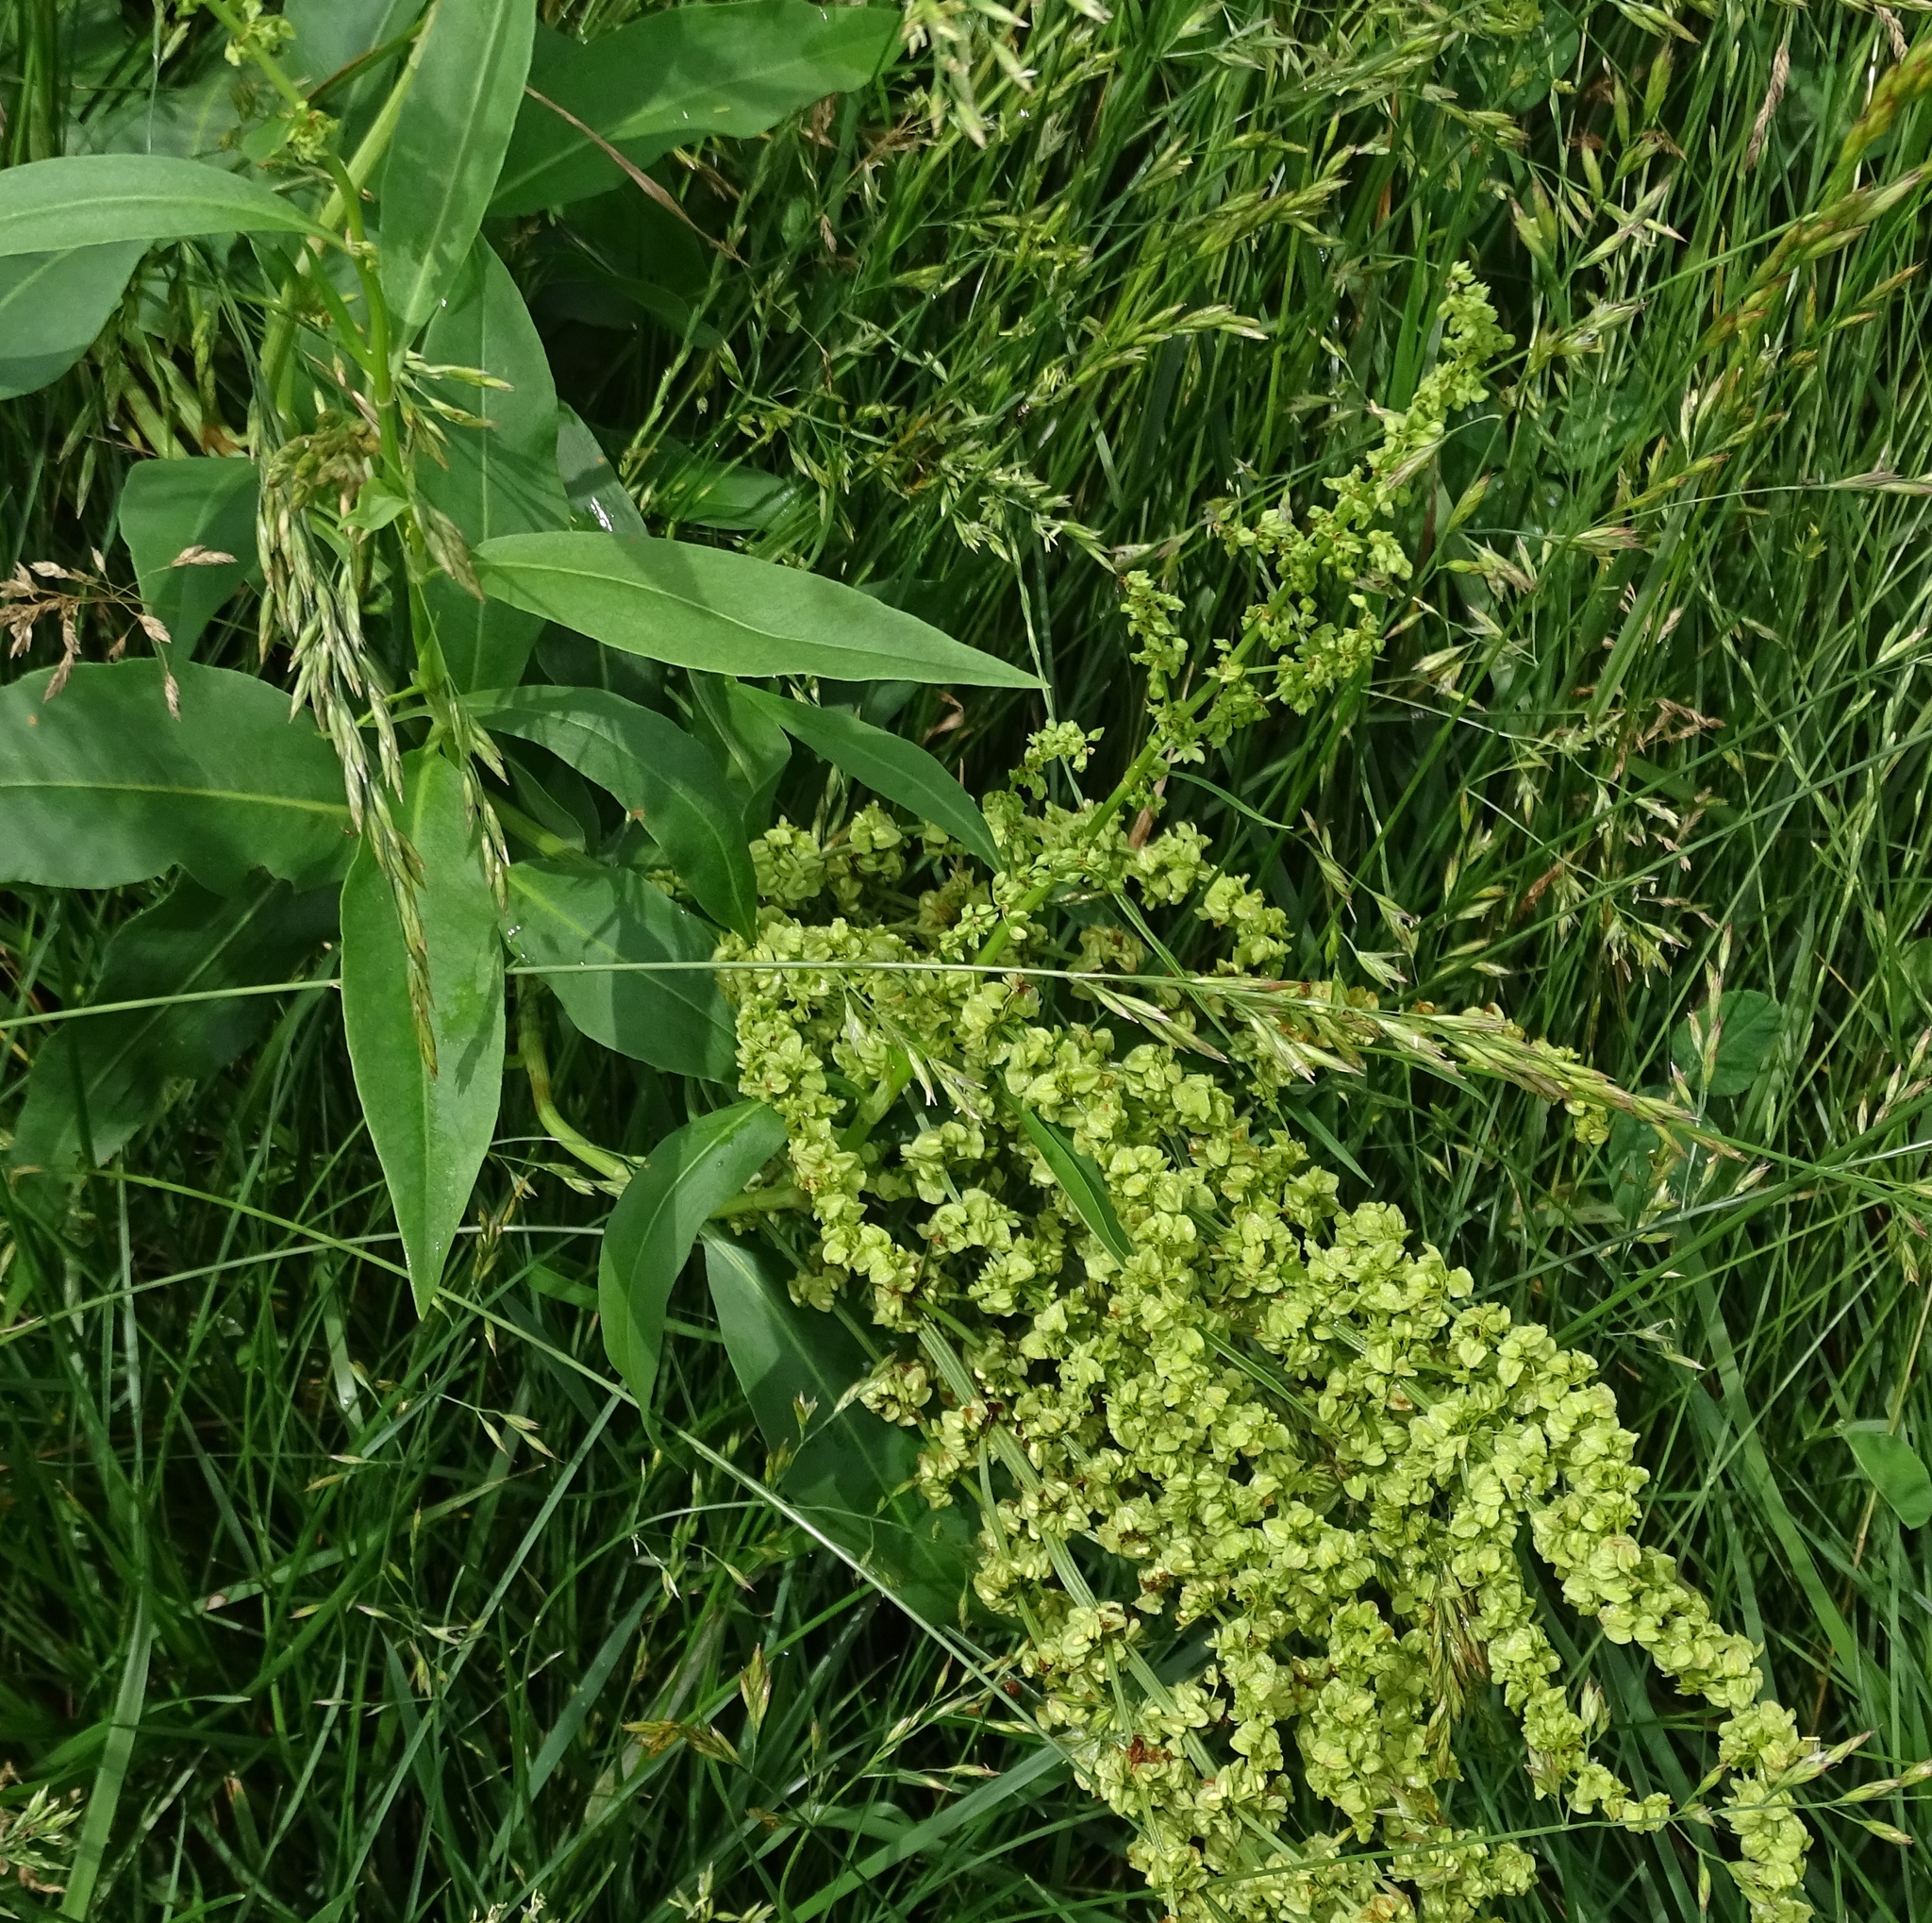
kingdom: Plantae
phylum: Tracheophyta
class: Magnoliopsida
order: Caryophyllales
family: Polygonaceae
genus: Rumex
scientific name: Rumex altissimus
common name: Smooth dock
